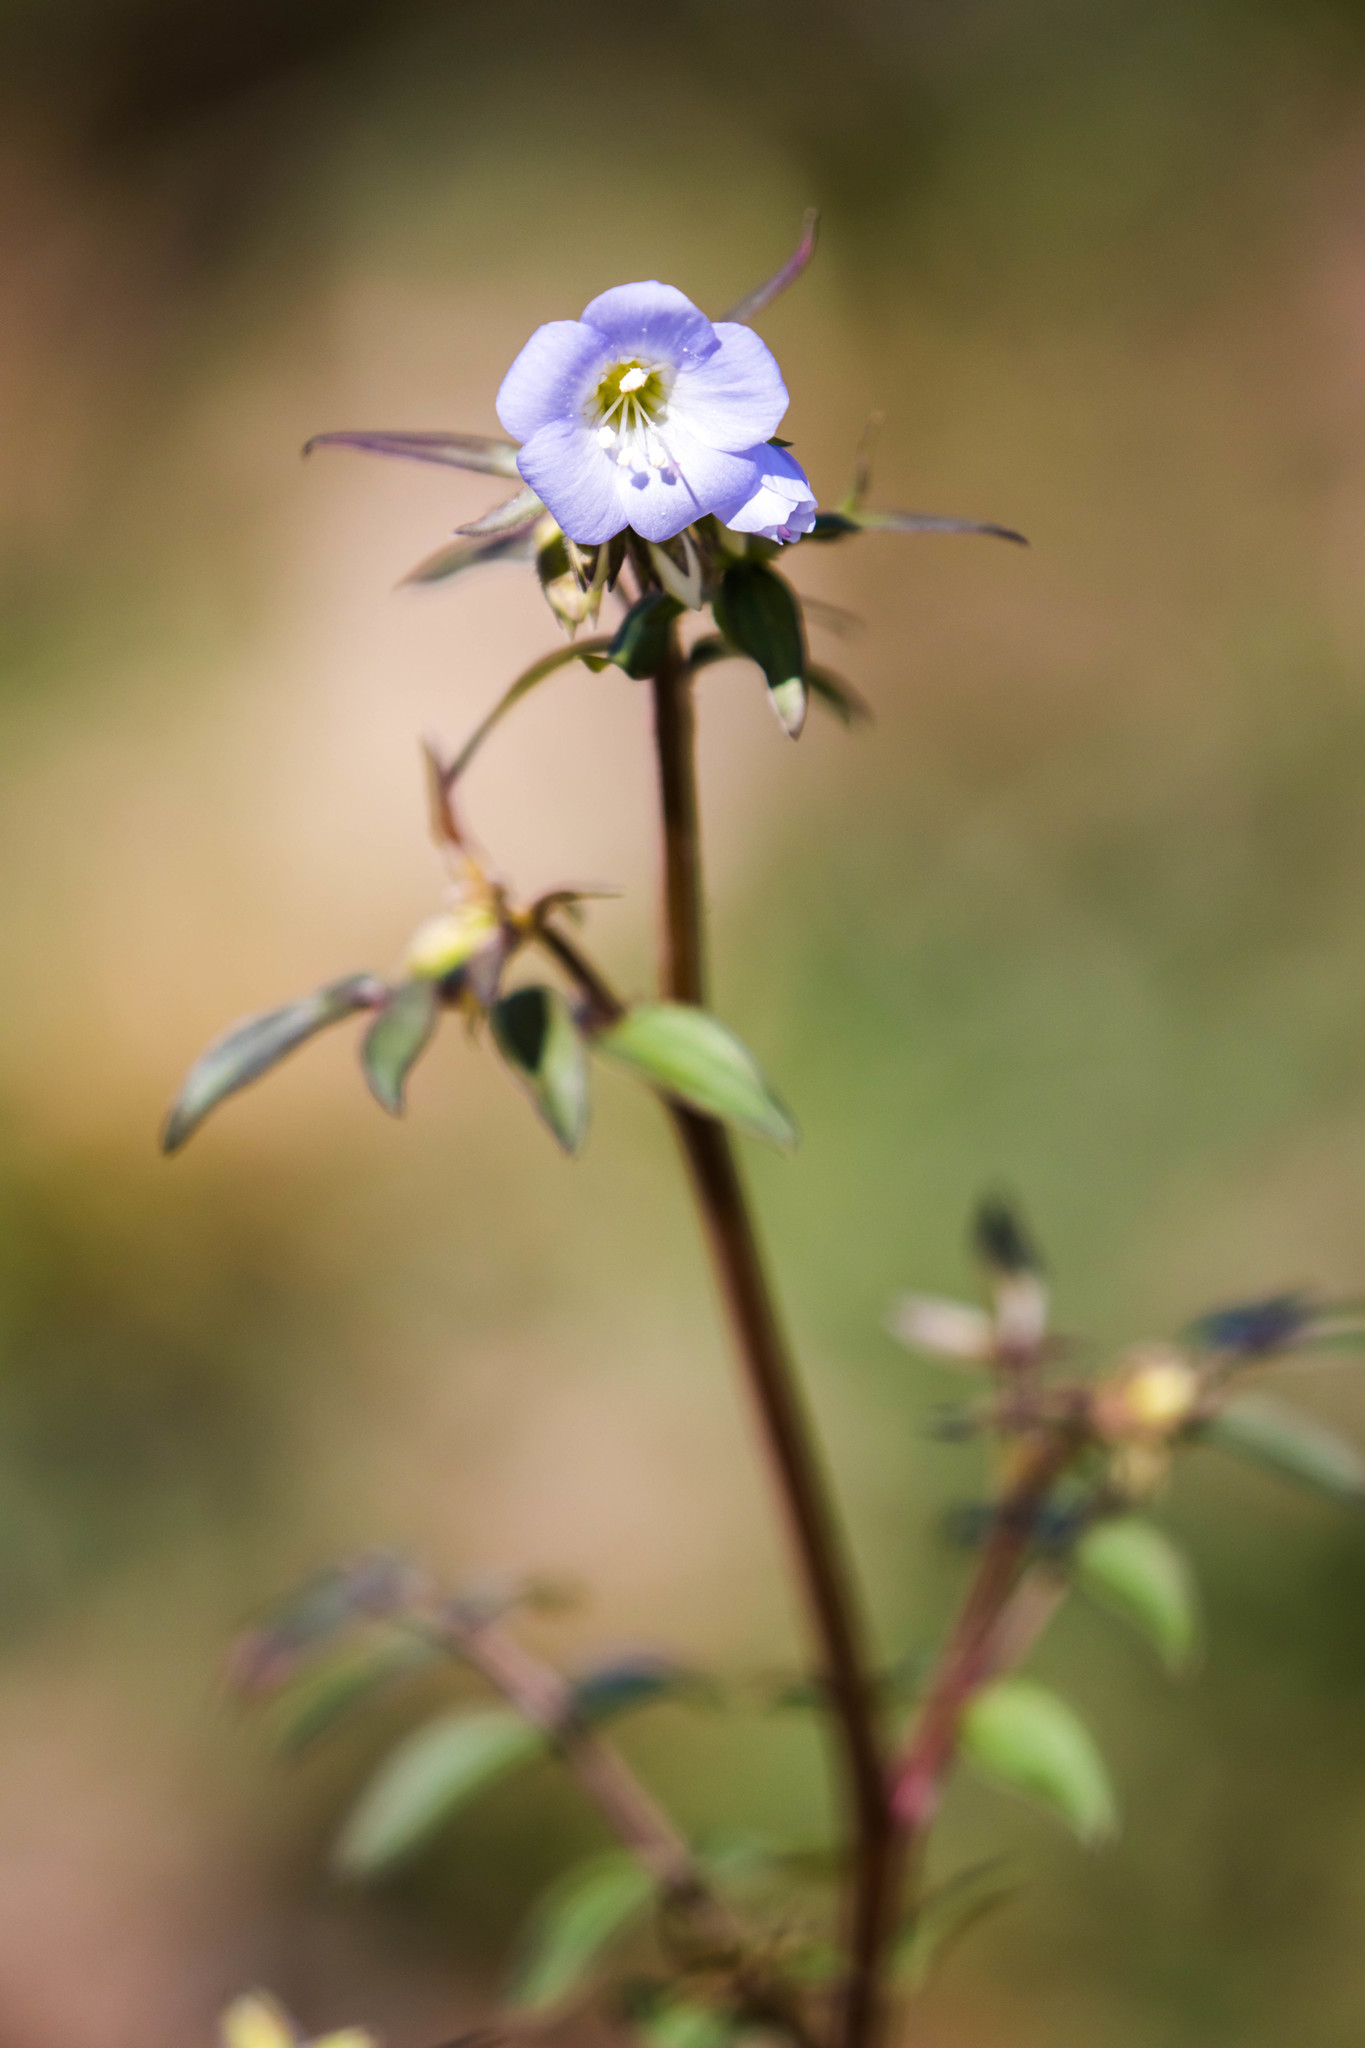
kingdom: Plantae
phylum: Tracheophyta
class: Magnoliopsida
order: Ericales
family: Polemoniaceae
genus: Polemonium
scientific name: Polemonium reptans
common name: Creeping jacob's-ladder
